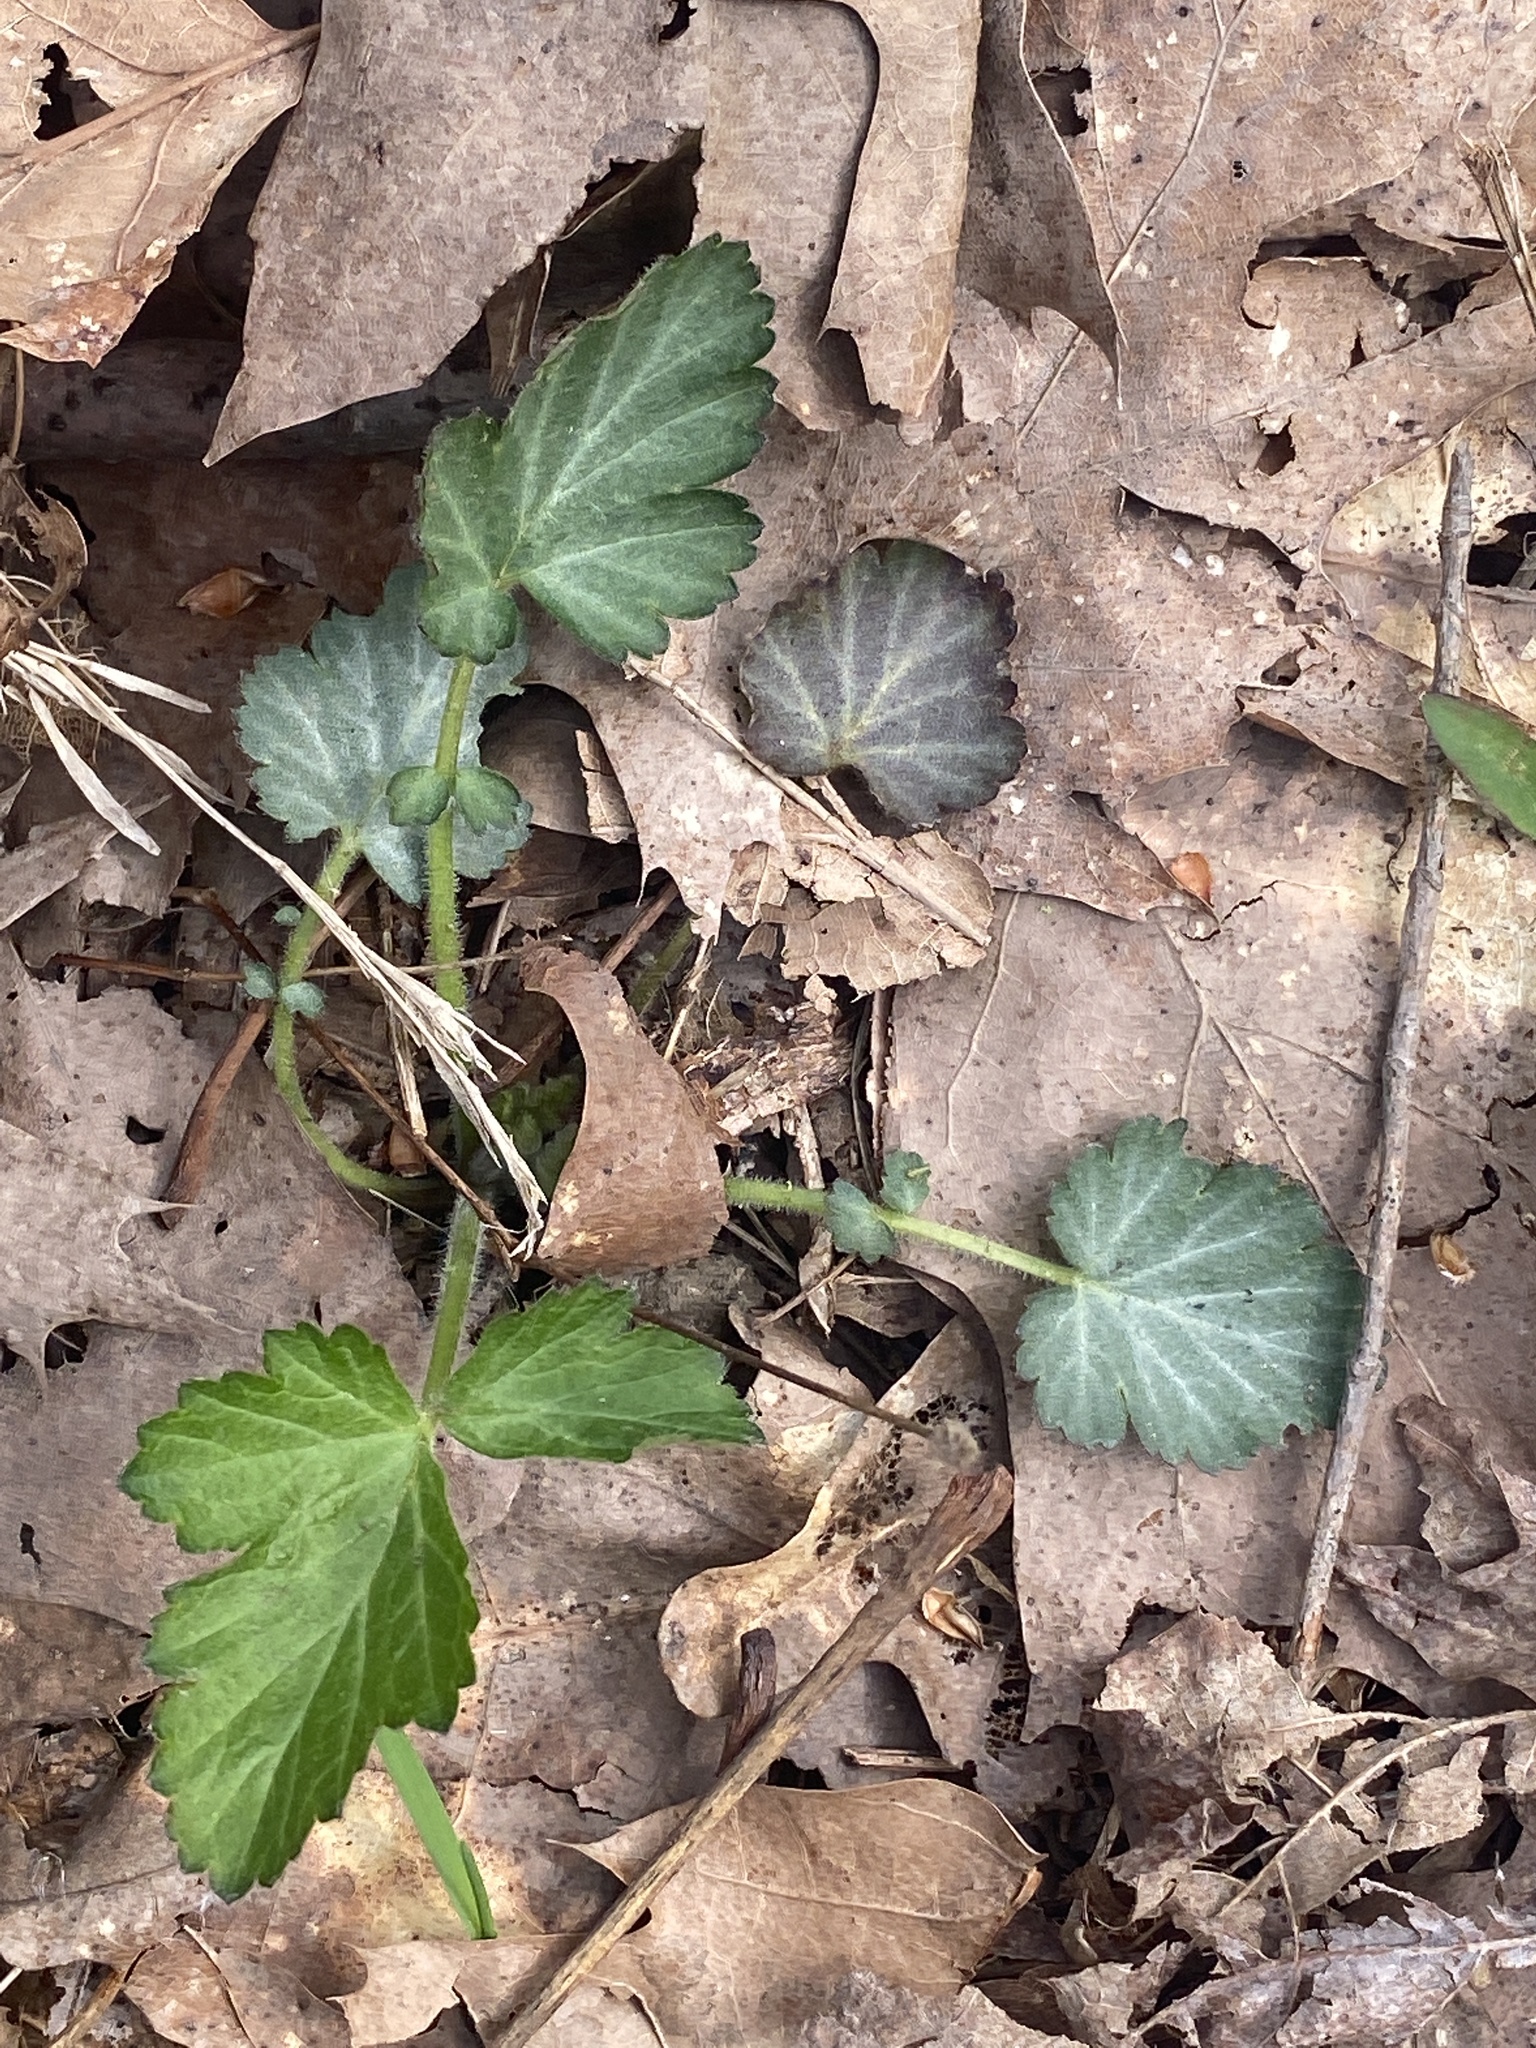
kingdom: Plantae
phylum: Tracheophyta
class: Magnoliopsida
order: Rosales
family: Rosaceae
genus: Geum
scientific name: Geum canadense
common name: White avens
